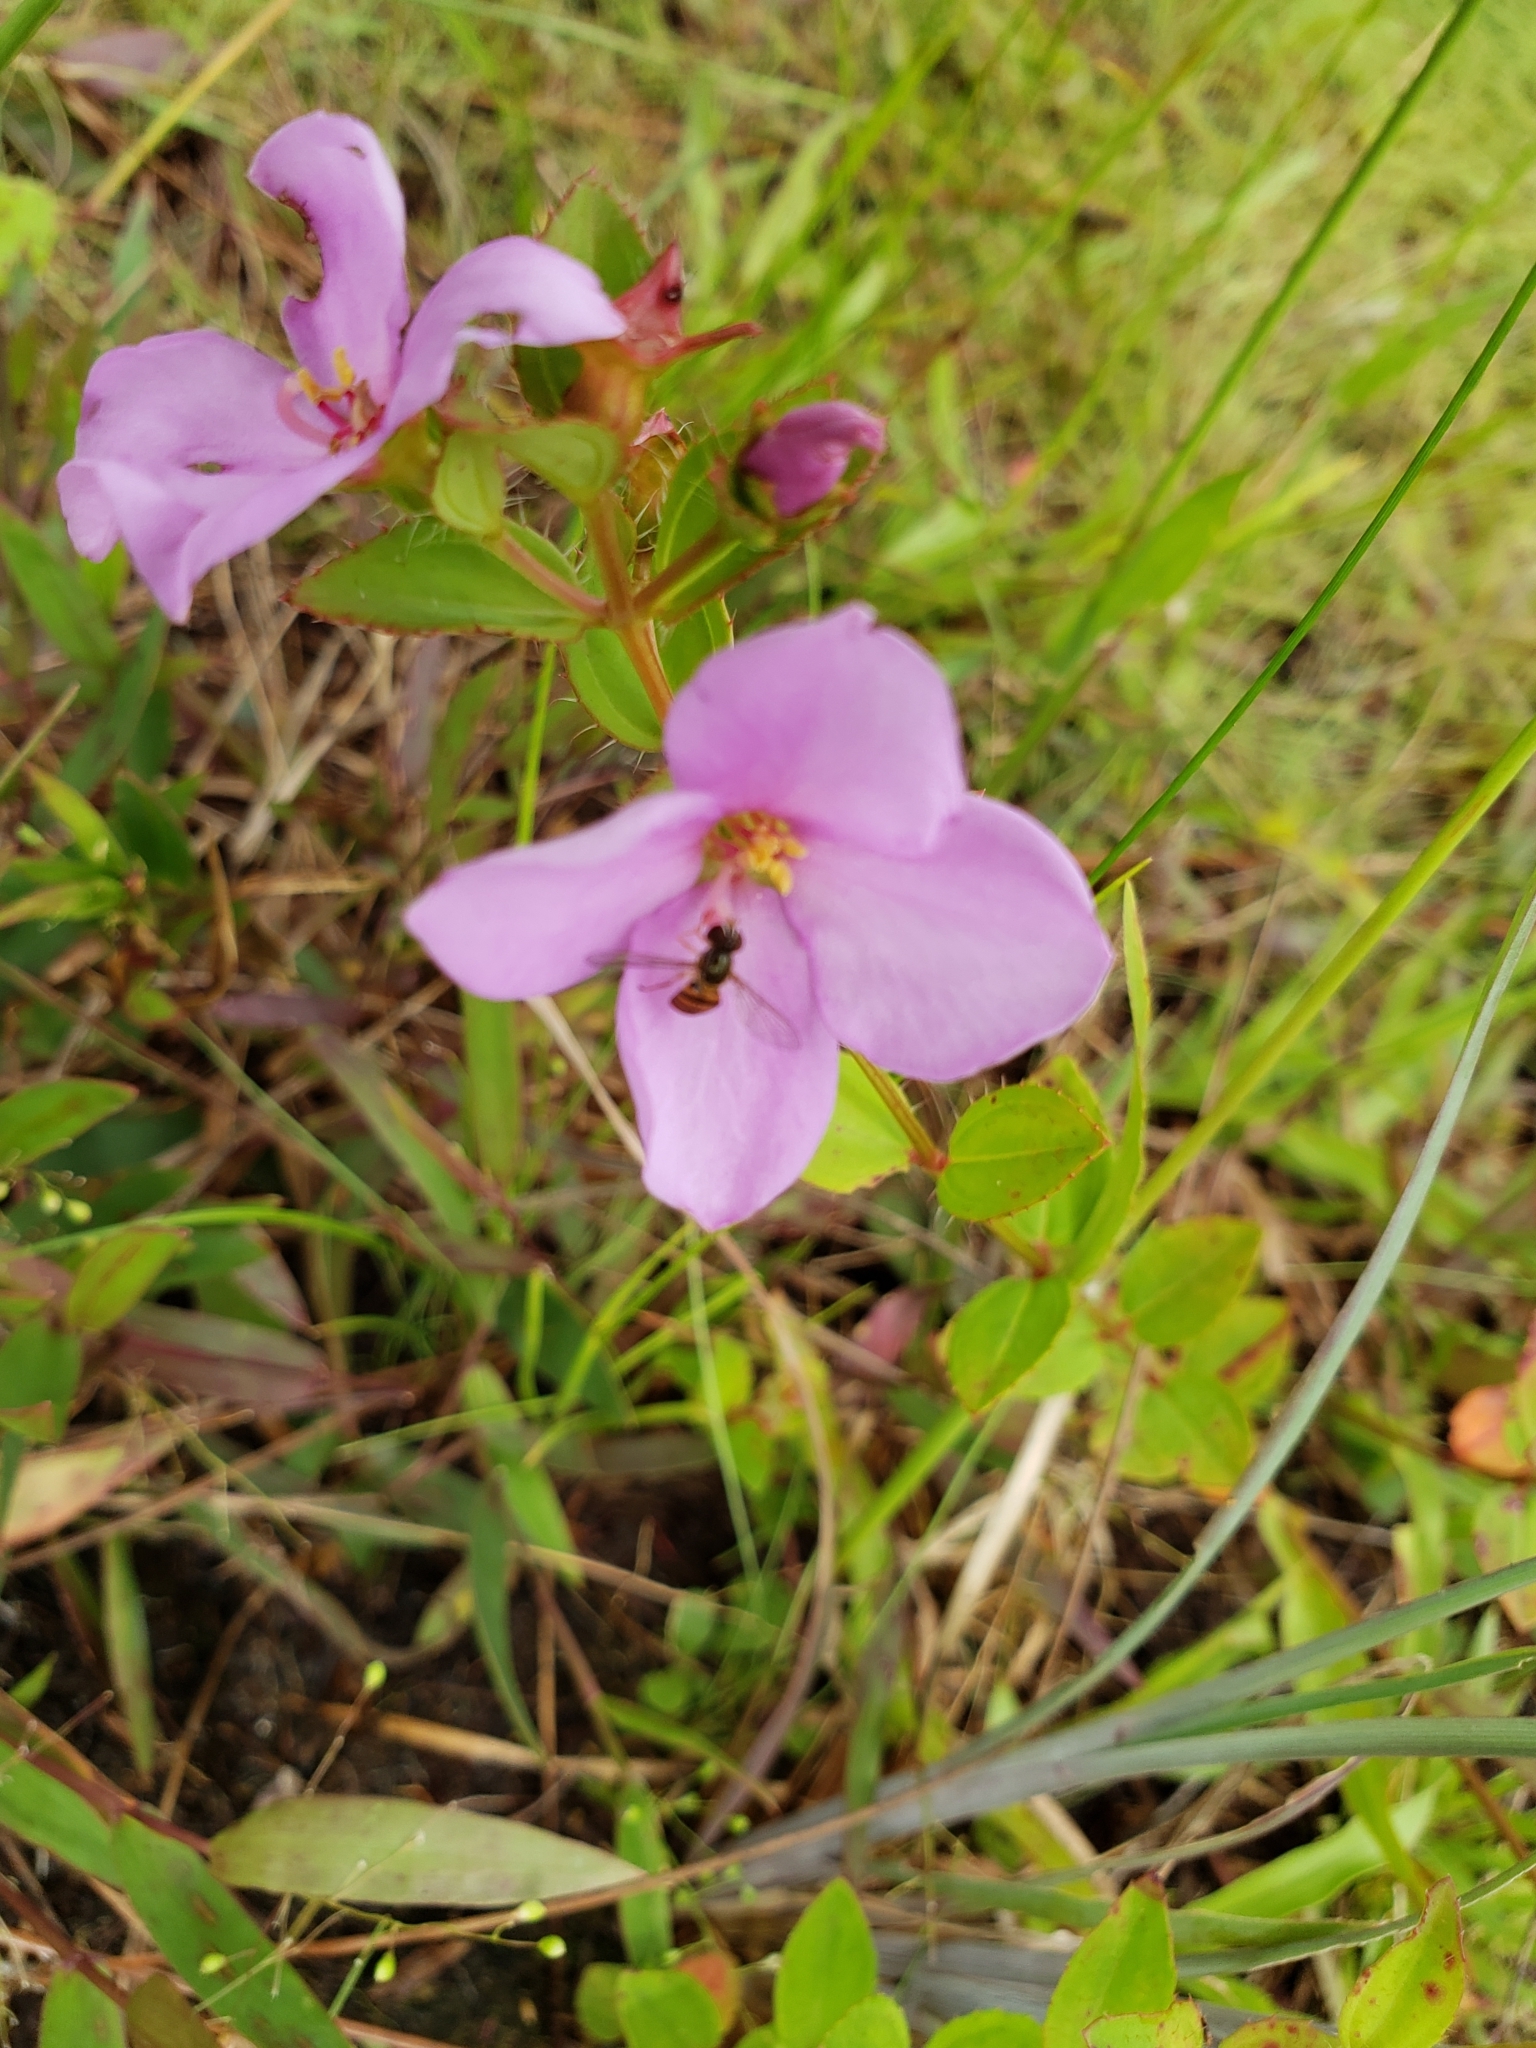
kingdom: Plantae
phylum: Tracheophyta
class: Magnoliopsida
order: Myrtales
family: Melastomataceae
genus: Rhexia
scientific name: Rhexia petiolata
